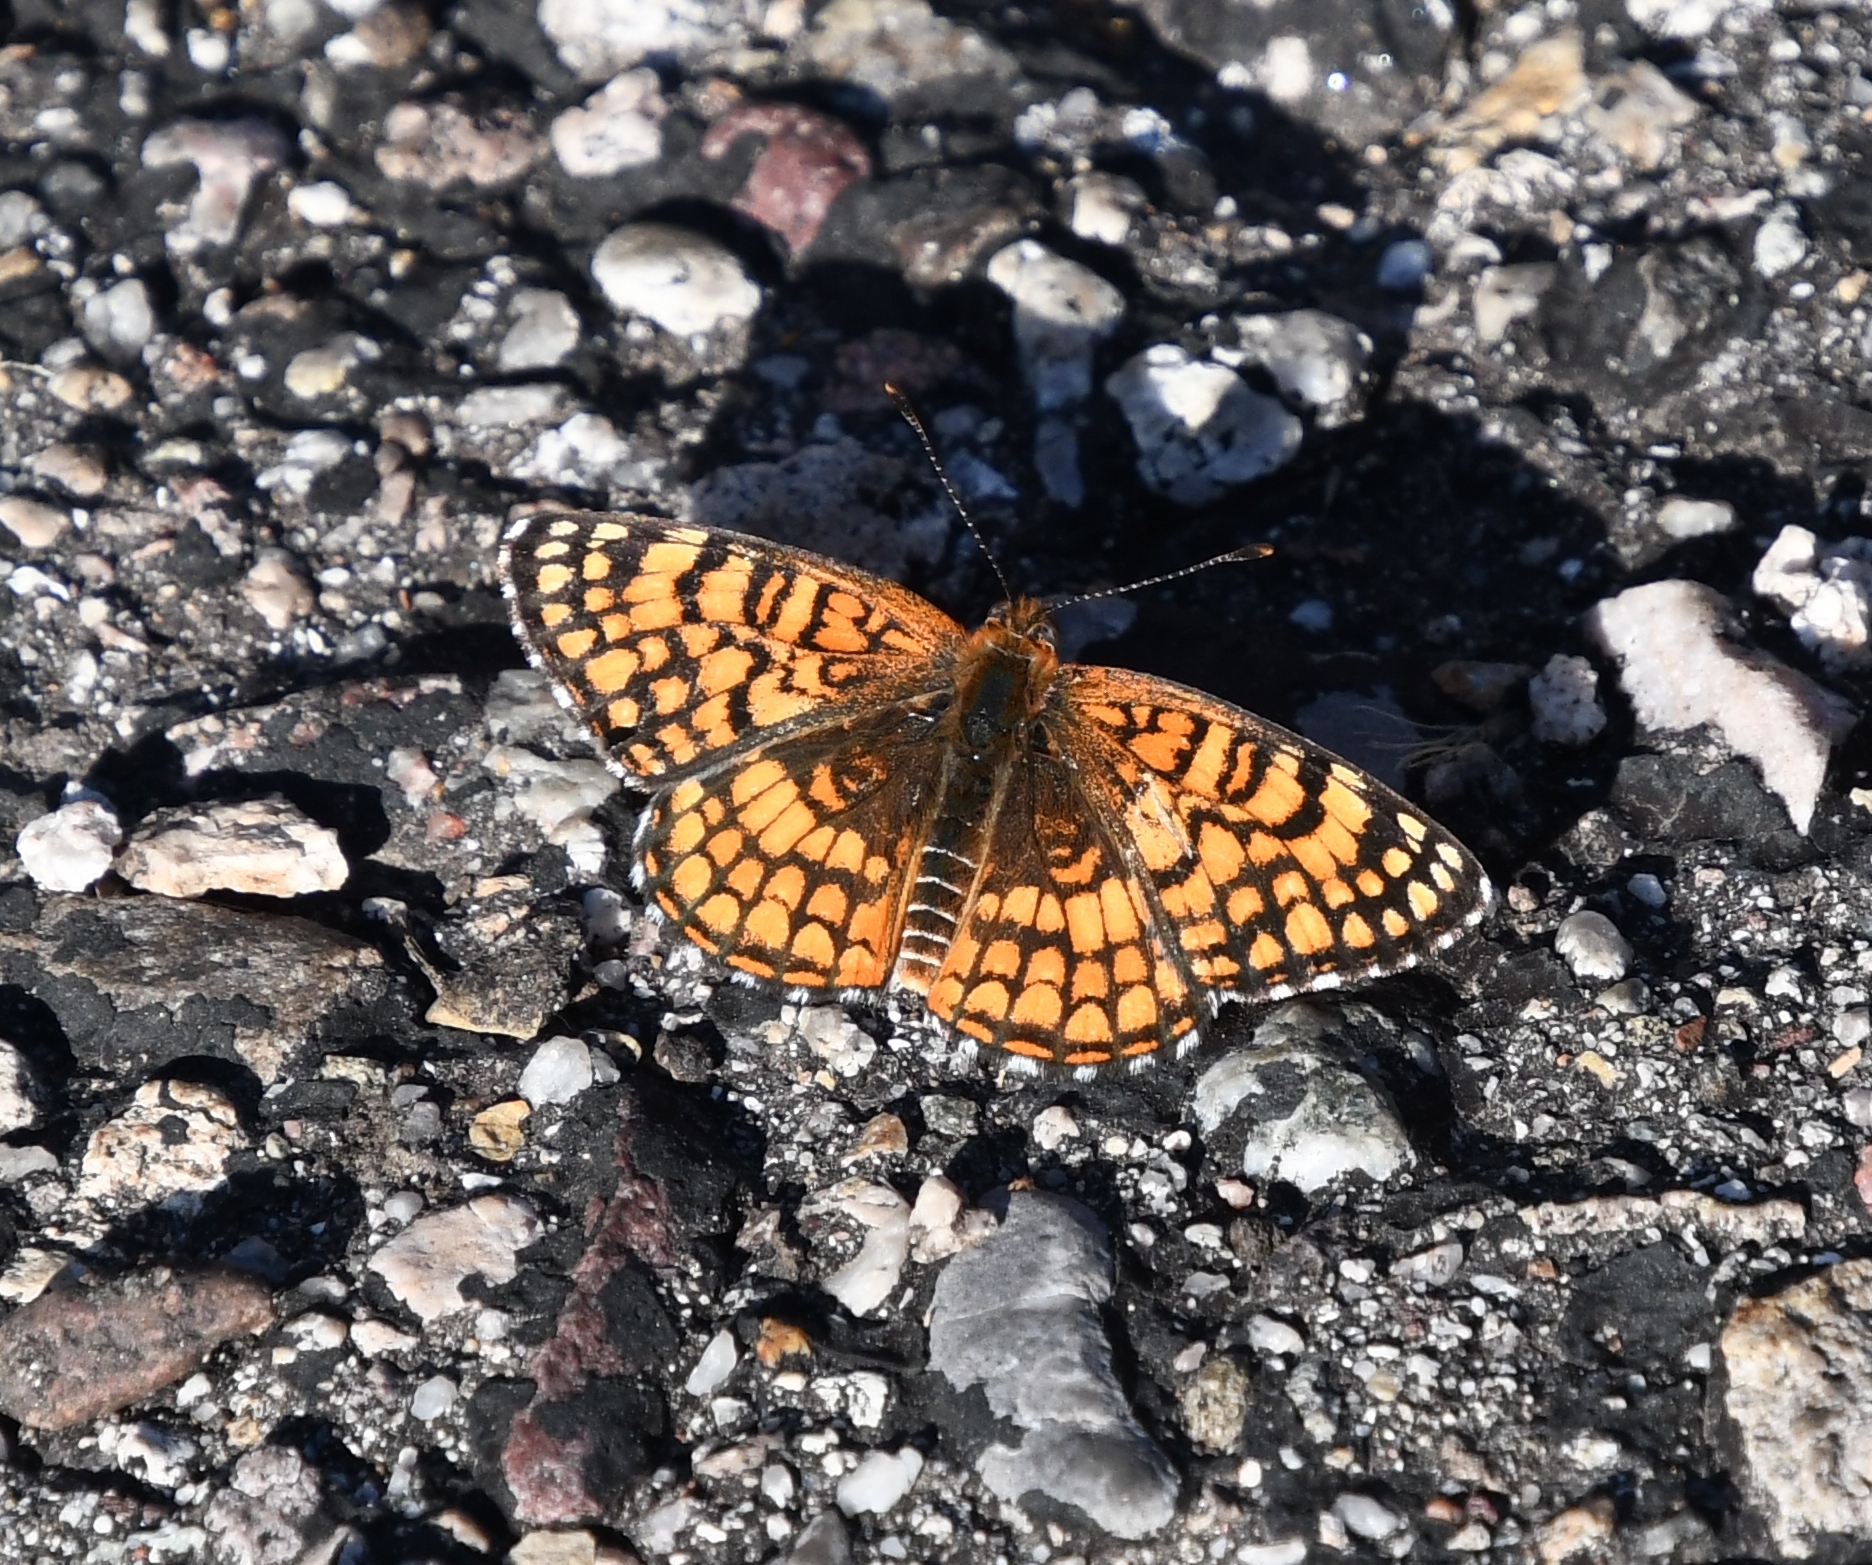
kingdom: Animalia
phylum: Arthropoda
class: Insecta
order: Lepidoptera
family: Nymphalidae
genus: Chlosyne
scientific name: Chlosyne acastus
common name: Sagebrush checkerspot
